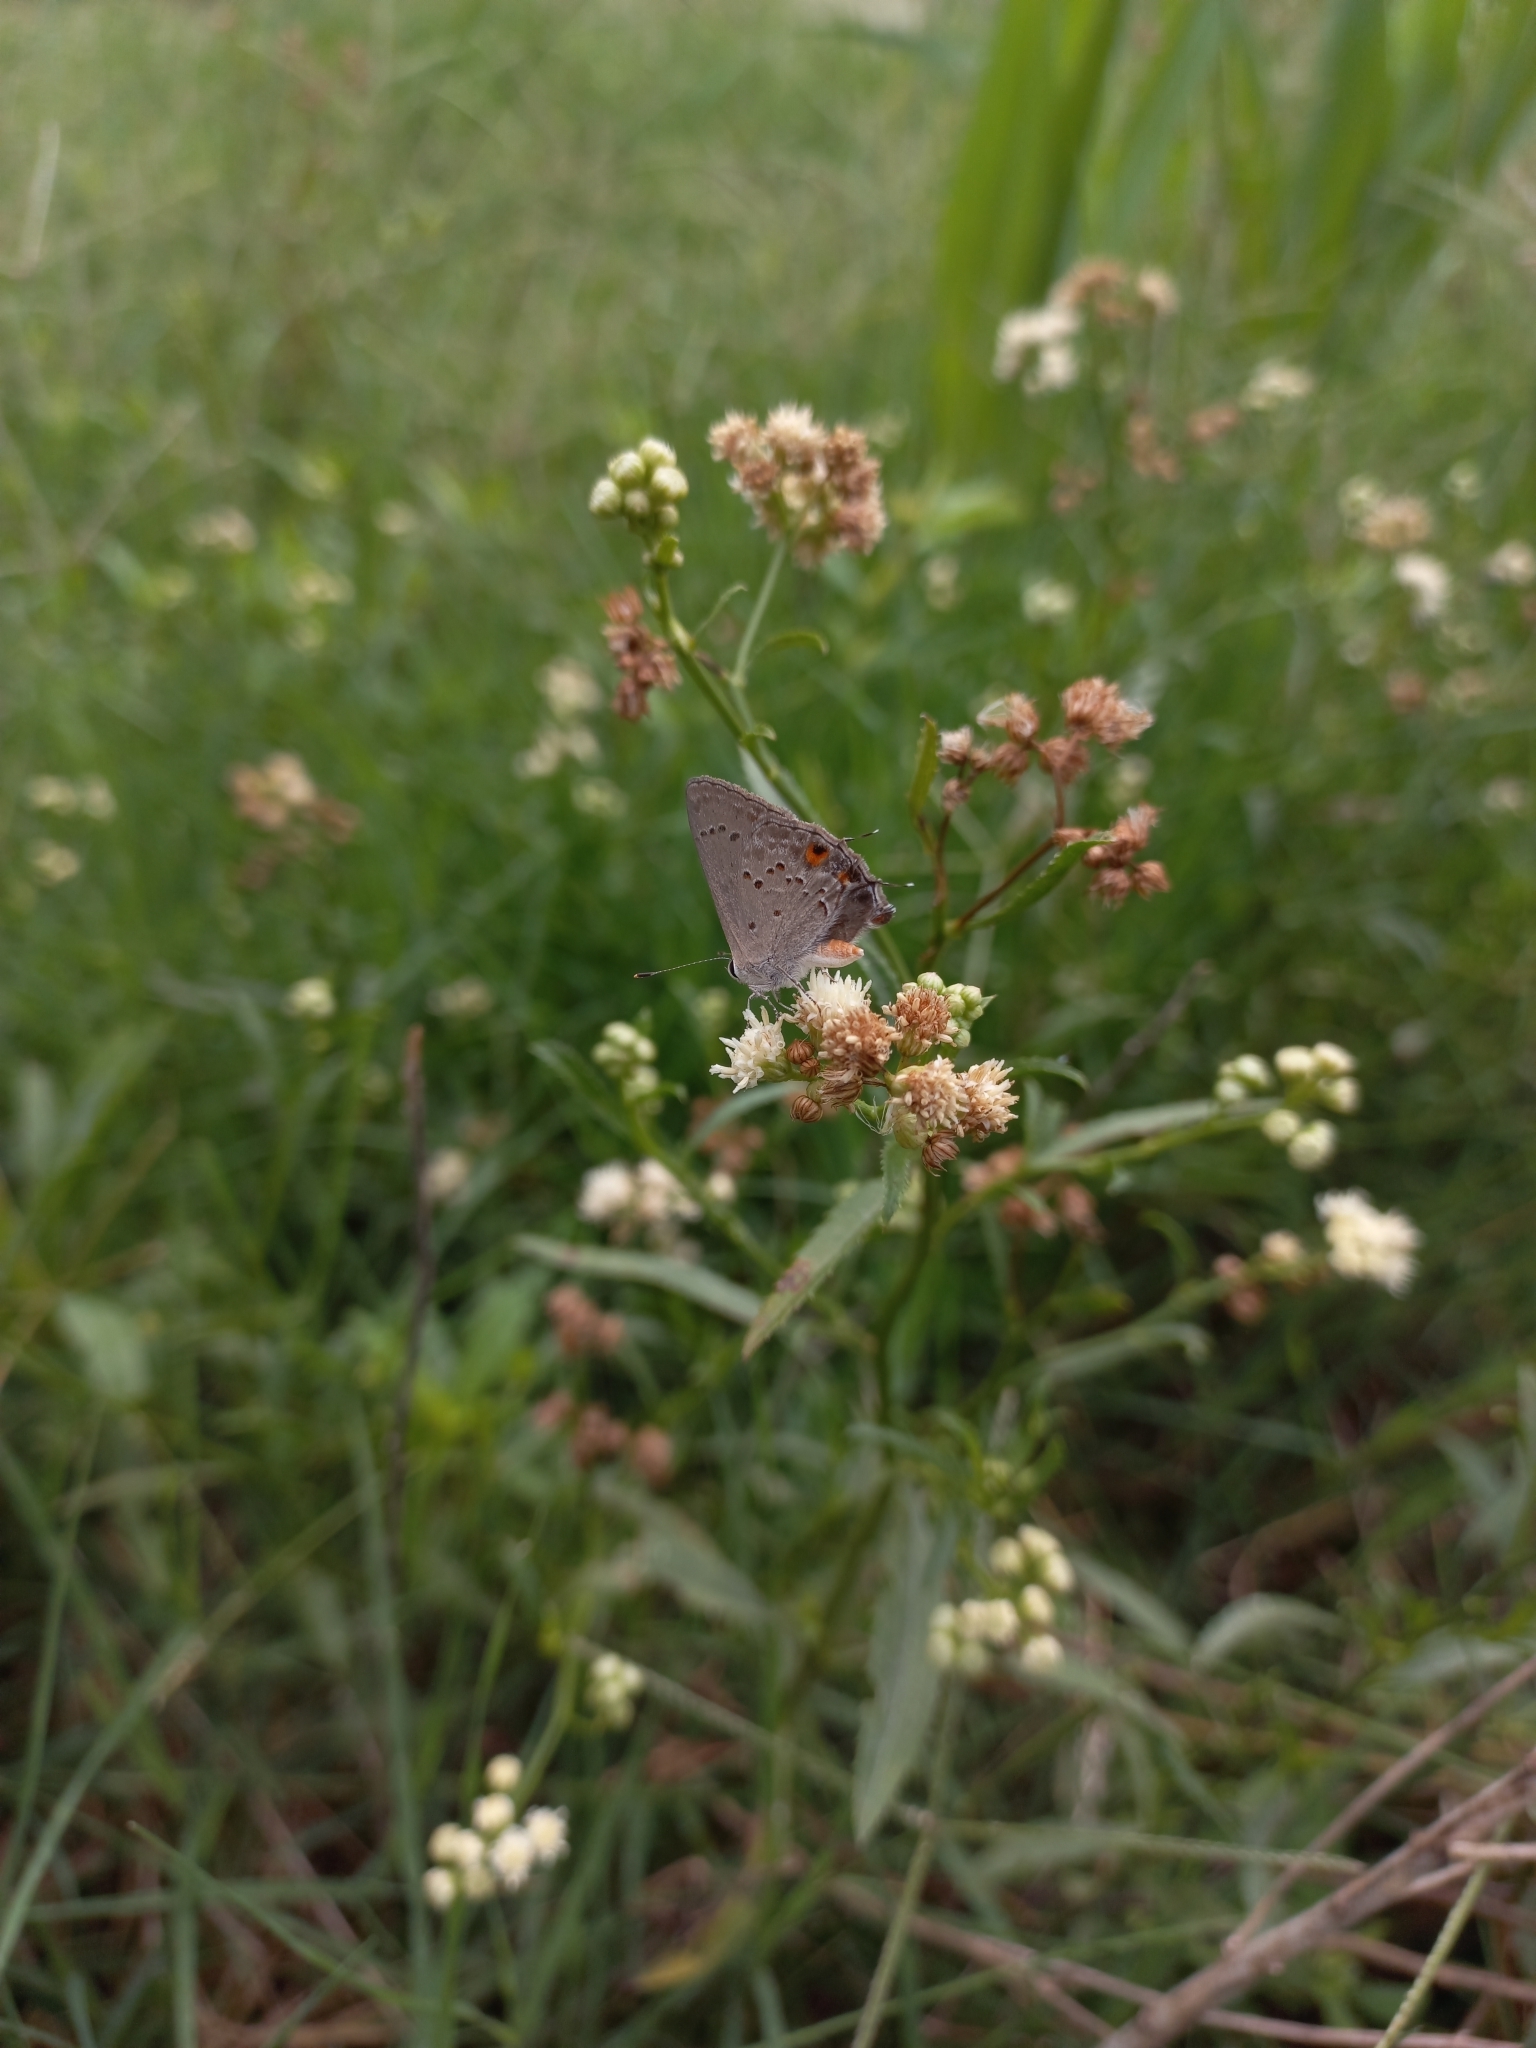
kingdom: Animalia
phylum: Arthropoda
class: Insecta
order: Lepidoptera
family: Lycaenidae
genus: Strymon
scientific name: Strymon eurytulus
